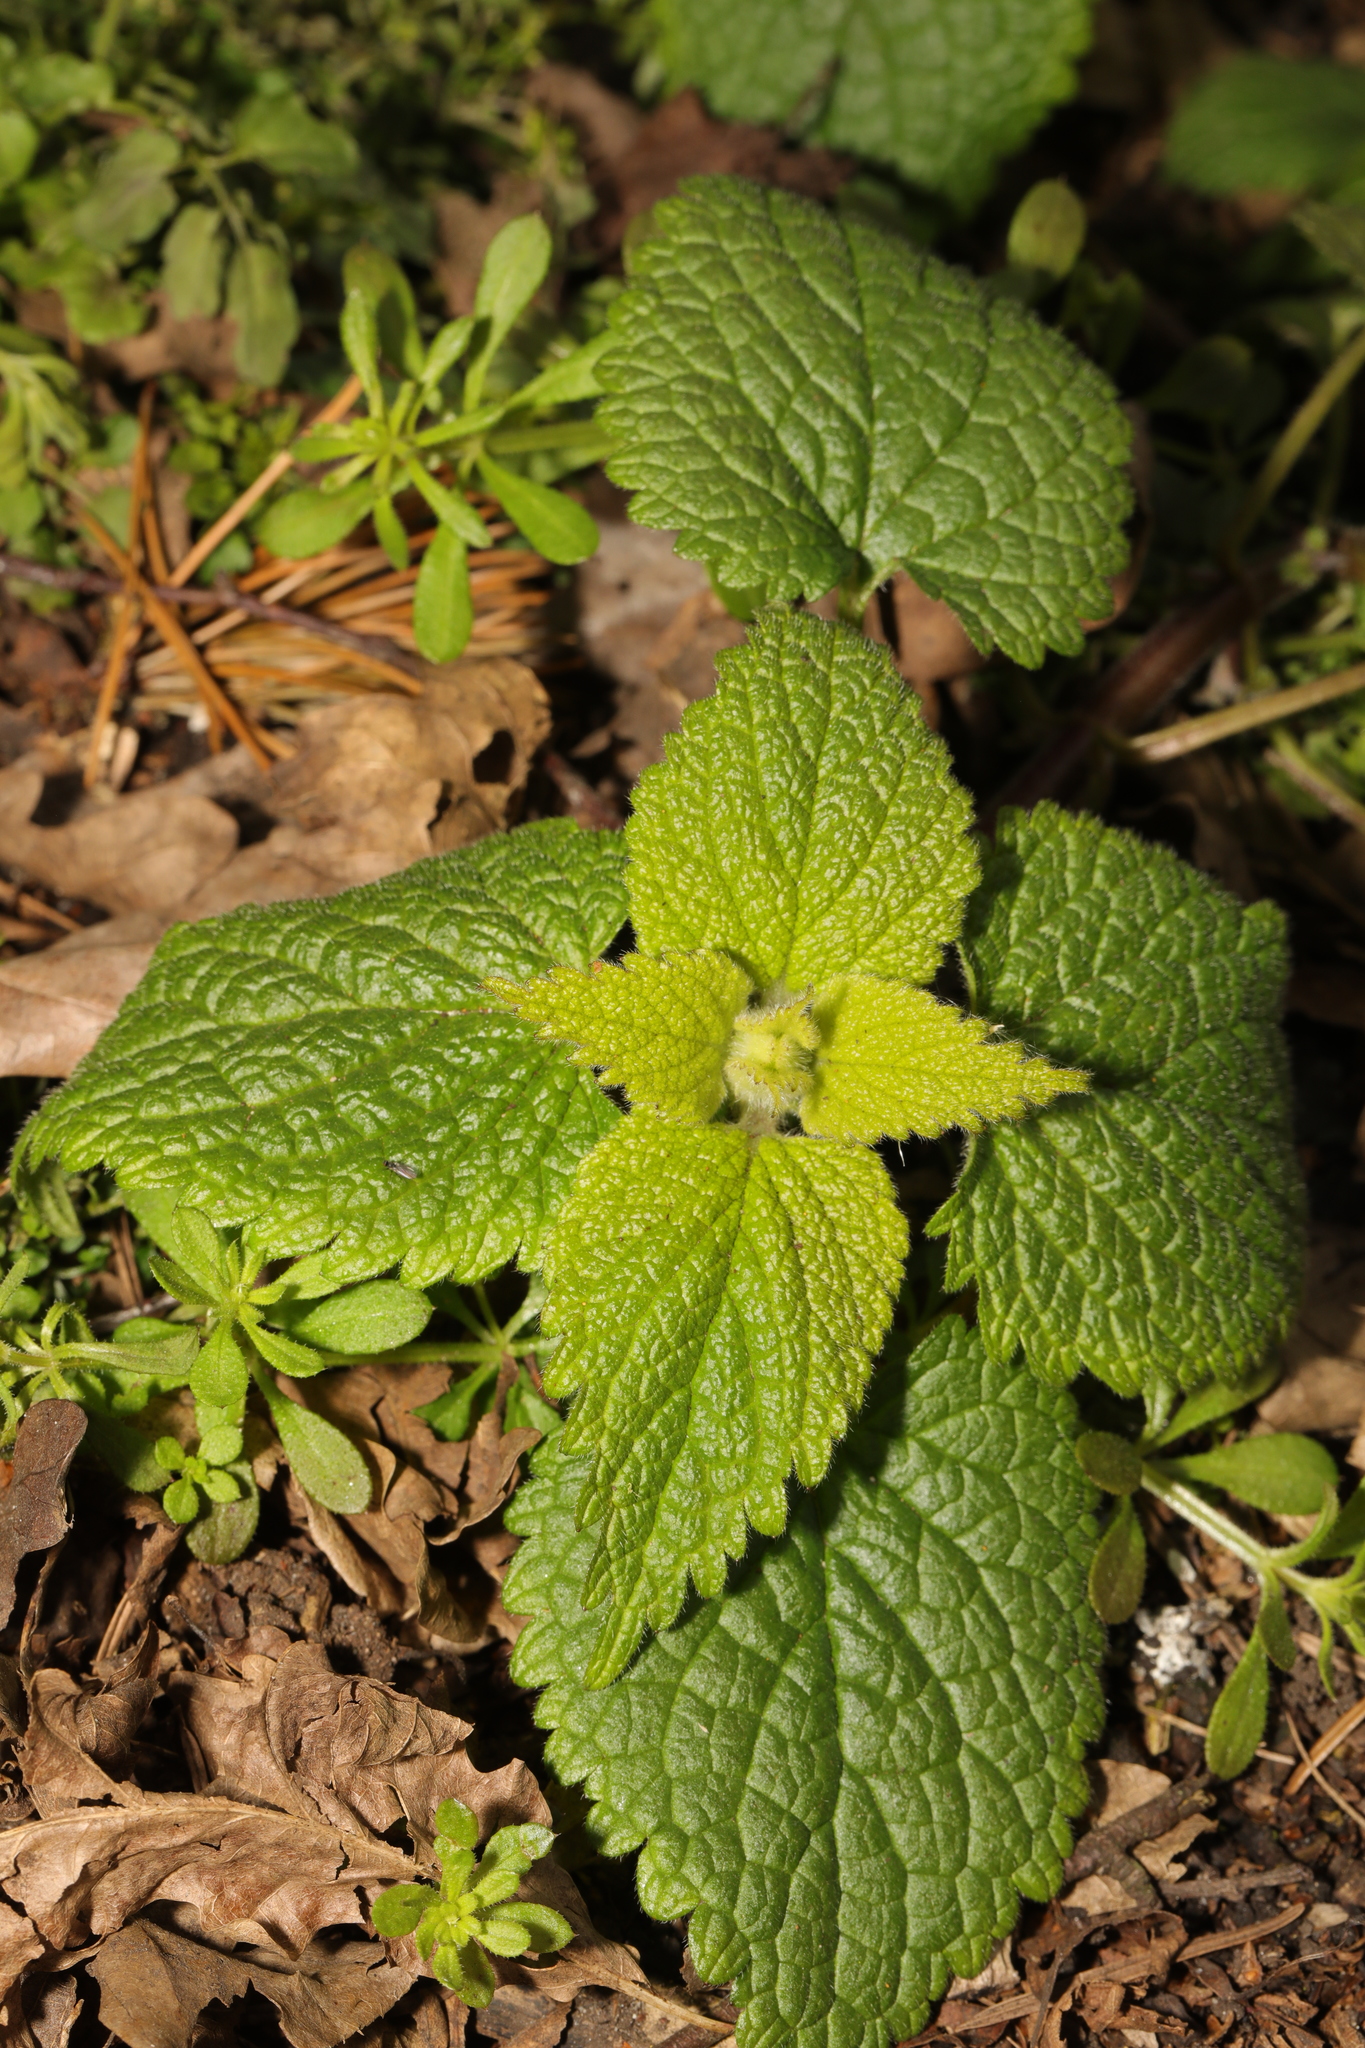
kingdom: Plantae
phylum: Tracheophyta
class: Magnoliopsida
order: Lamiales
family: Lamiaceae
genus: Lamium
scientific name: Lamium album
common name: White dead-nettle
